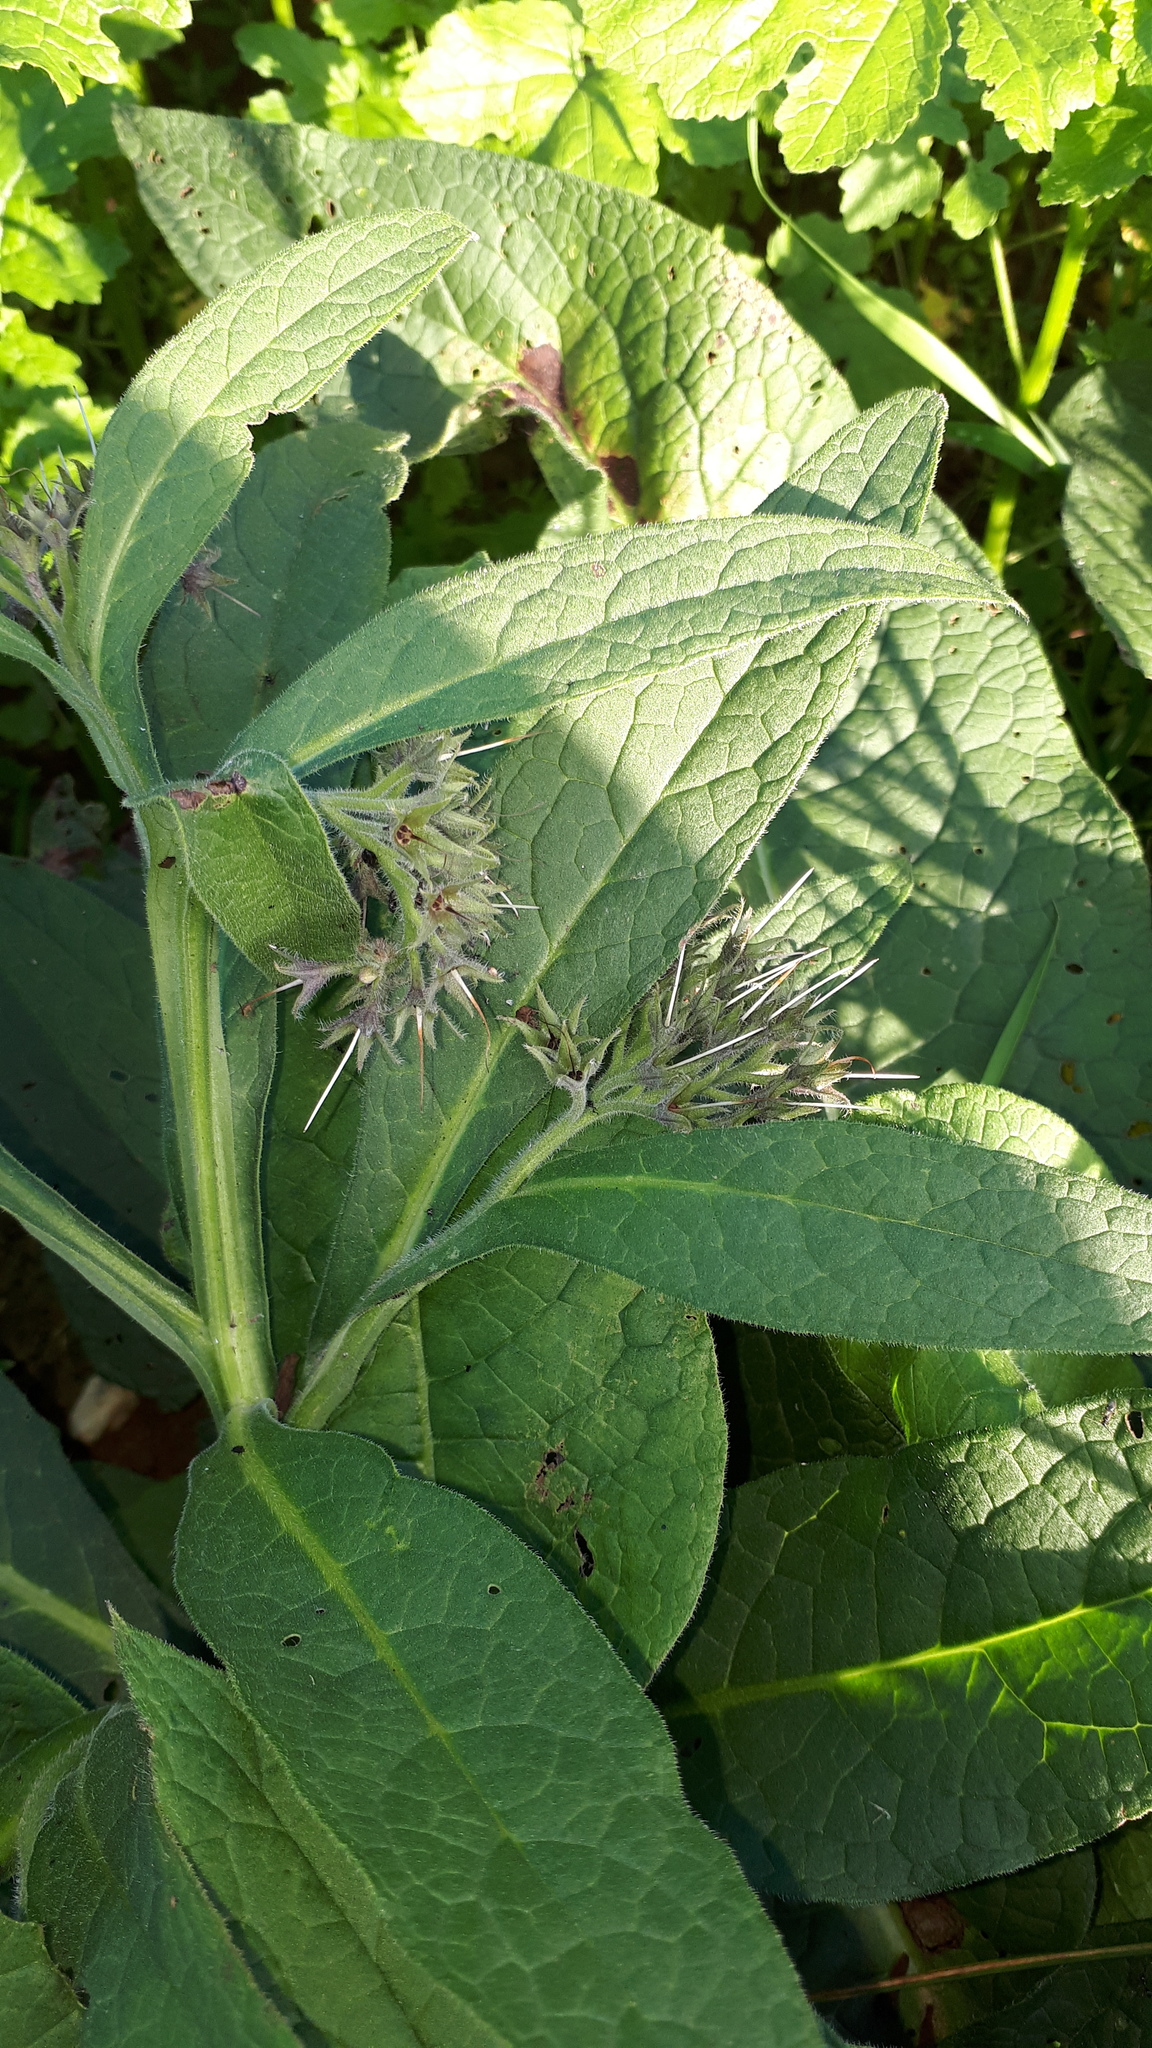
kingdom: Plantae
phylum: Tracheophyta
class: Magnoliopsida
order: Boraginales
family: Boraginaceae
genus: Symphytum
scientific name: Symphytum officinale
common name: Common comfrey
